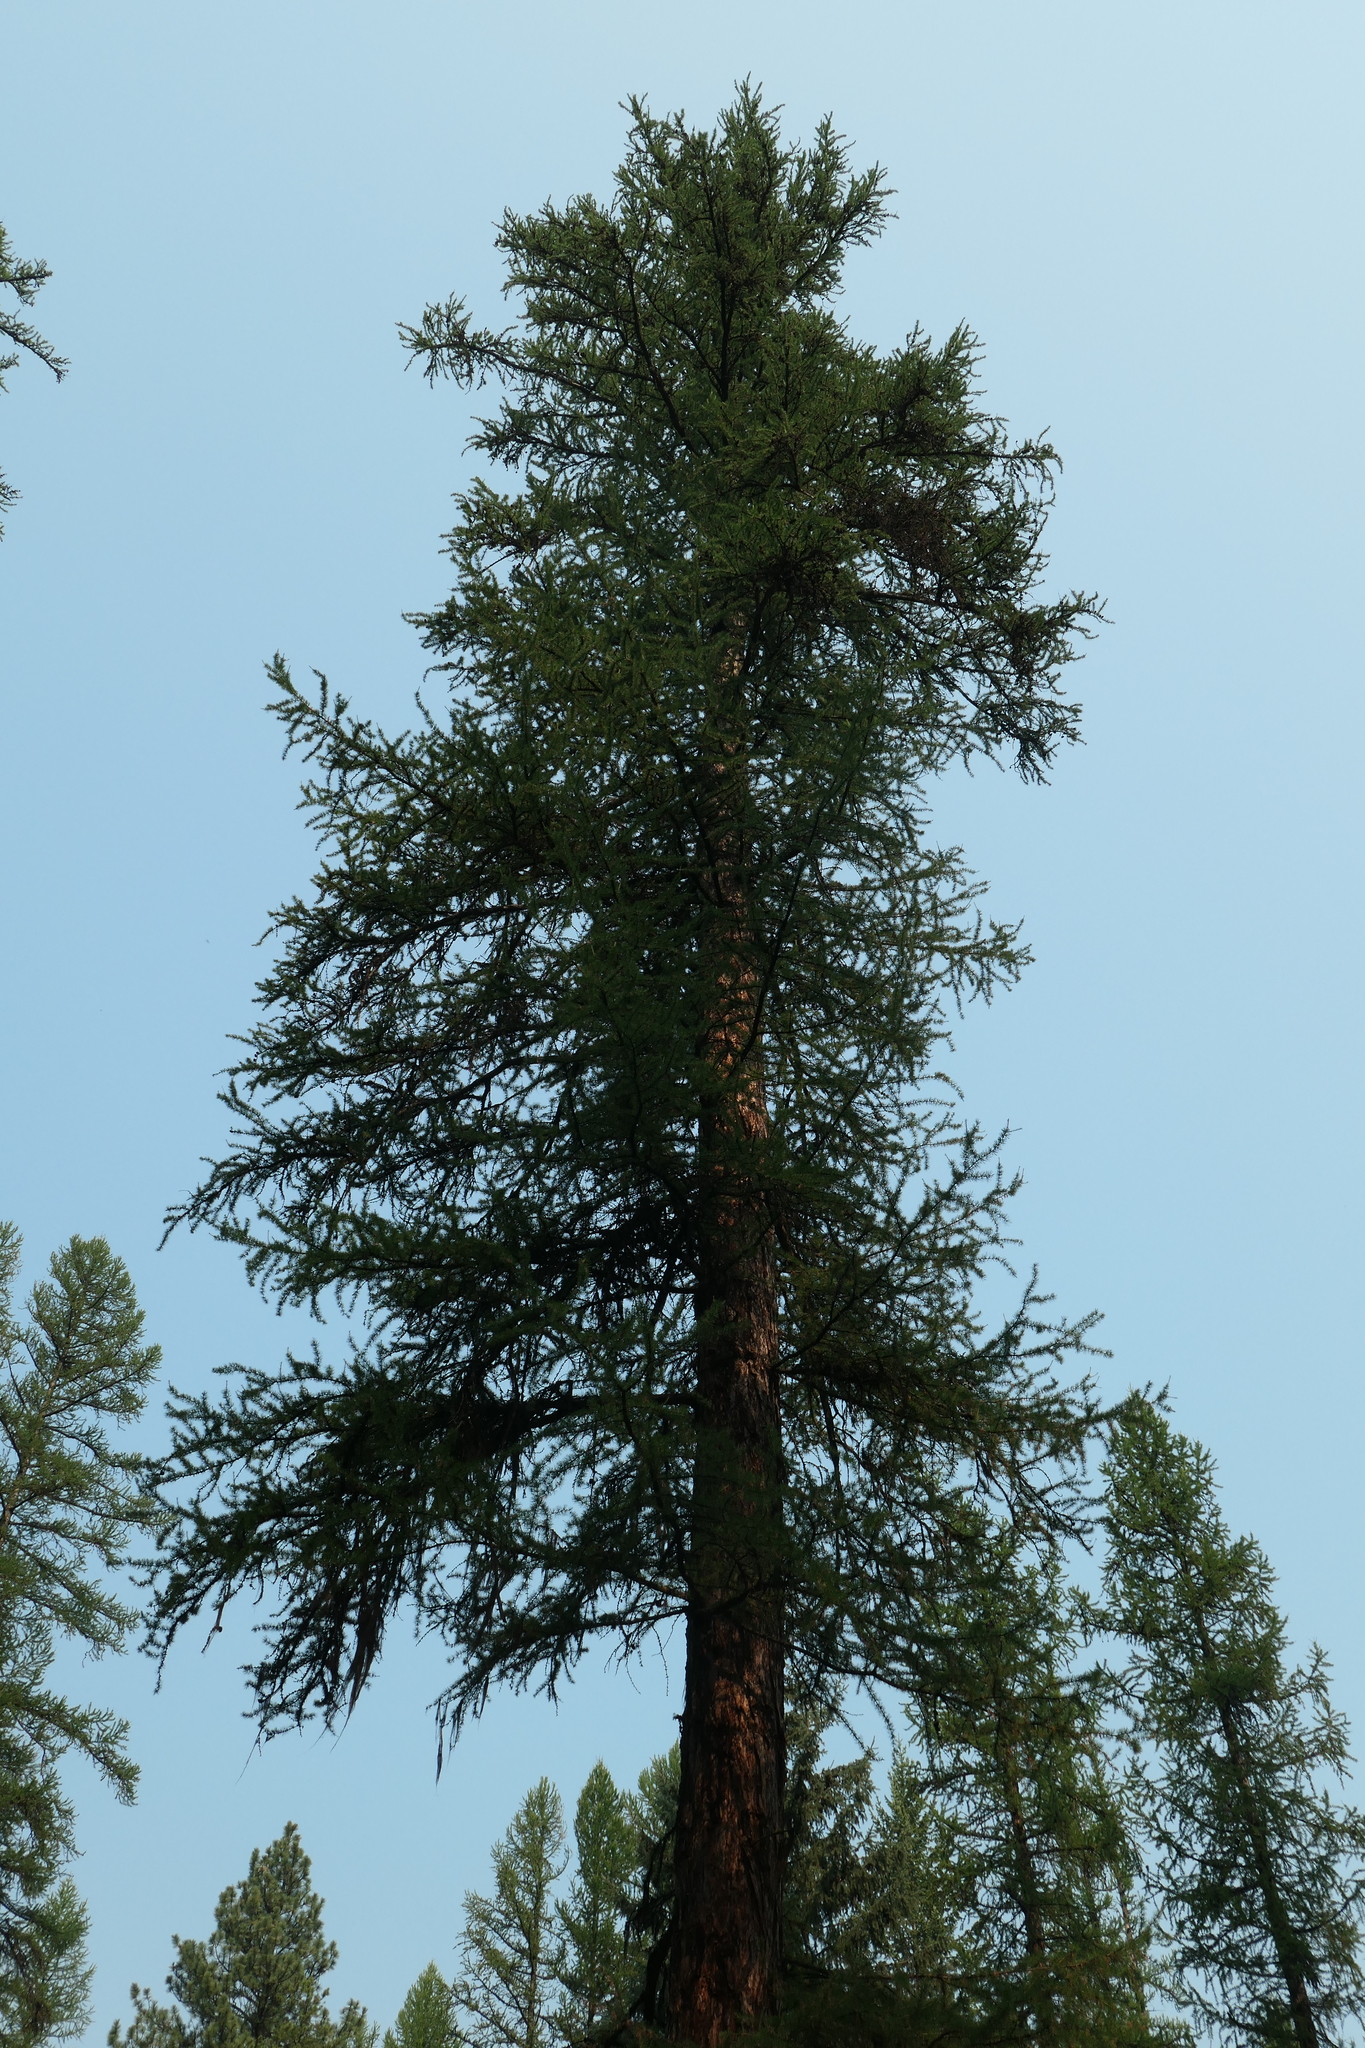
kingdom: Plantae
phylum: Tracheophyta
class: Pinopsida
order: Pinales
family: Pinaceae
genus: Larix
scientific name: Larix occidentalis
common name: Western larch
